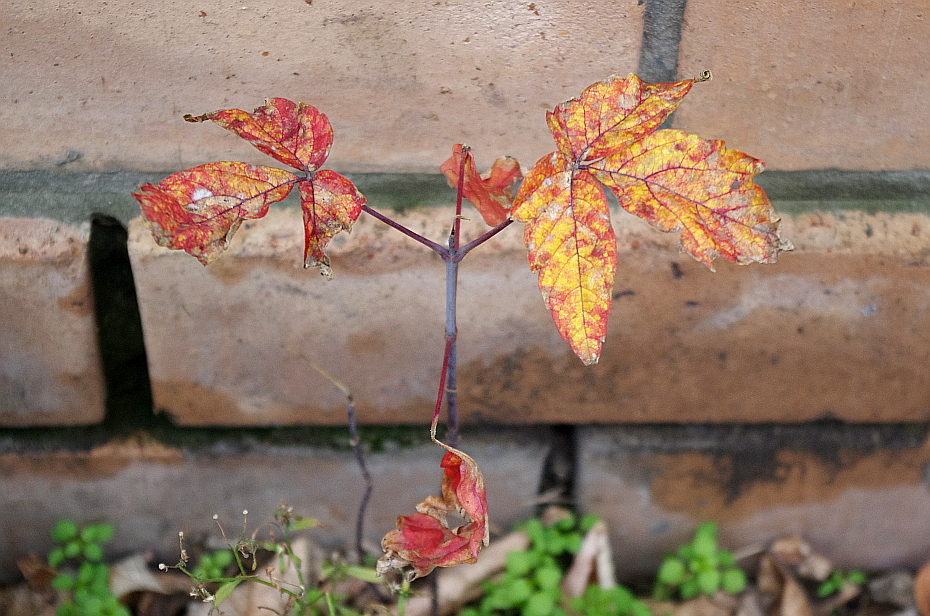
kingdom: Plantae
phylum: Tracheophyta
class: Magnoliopsida
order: Sapindales
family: Sapindaceae
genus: Acer
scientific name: Acer negundo
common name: Ashleaf maple
